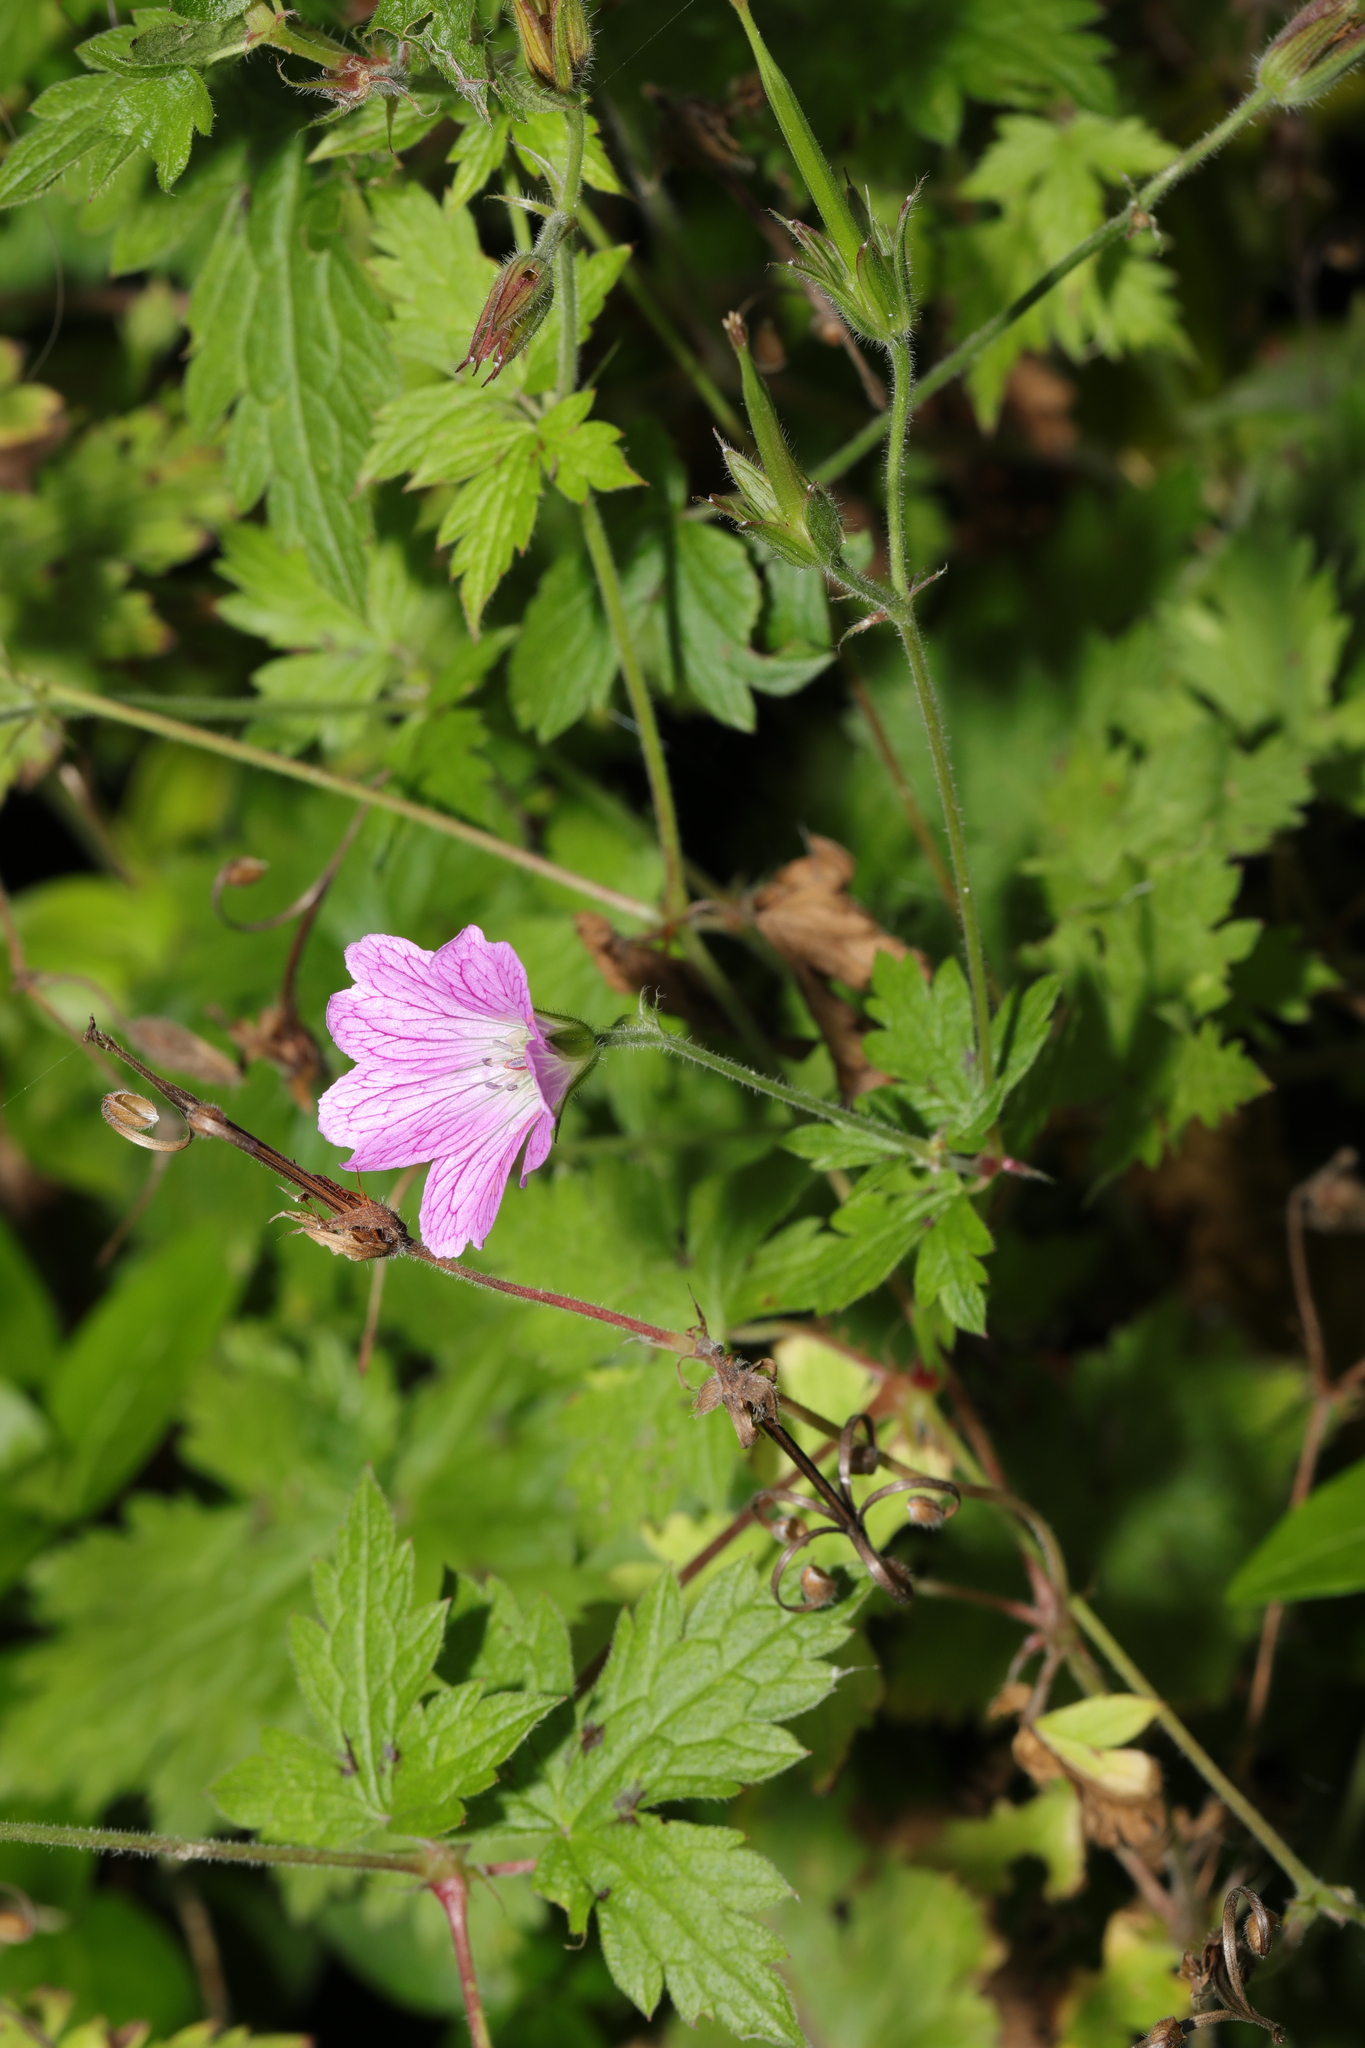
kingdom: Plantae
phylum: Tracheophyta
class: Magnoliopsida
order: Geraniales
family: Geraniaceae
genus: Geranium
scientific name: Geranium oxonianum
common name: Druce's crane's-bill
